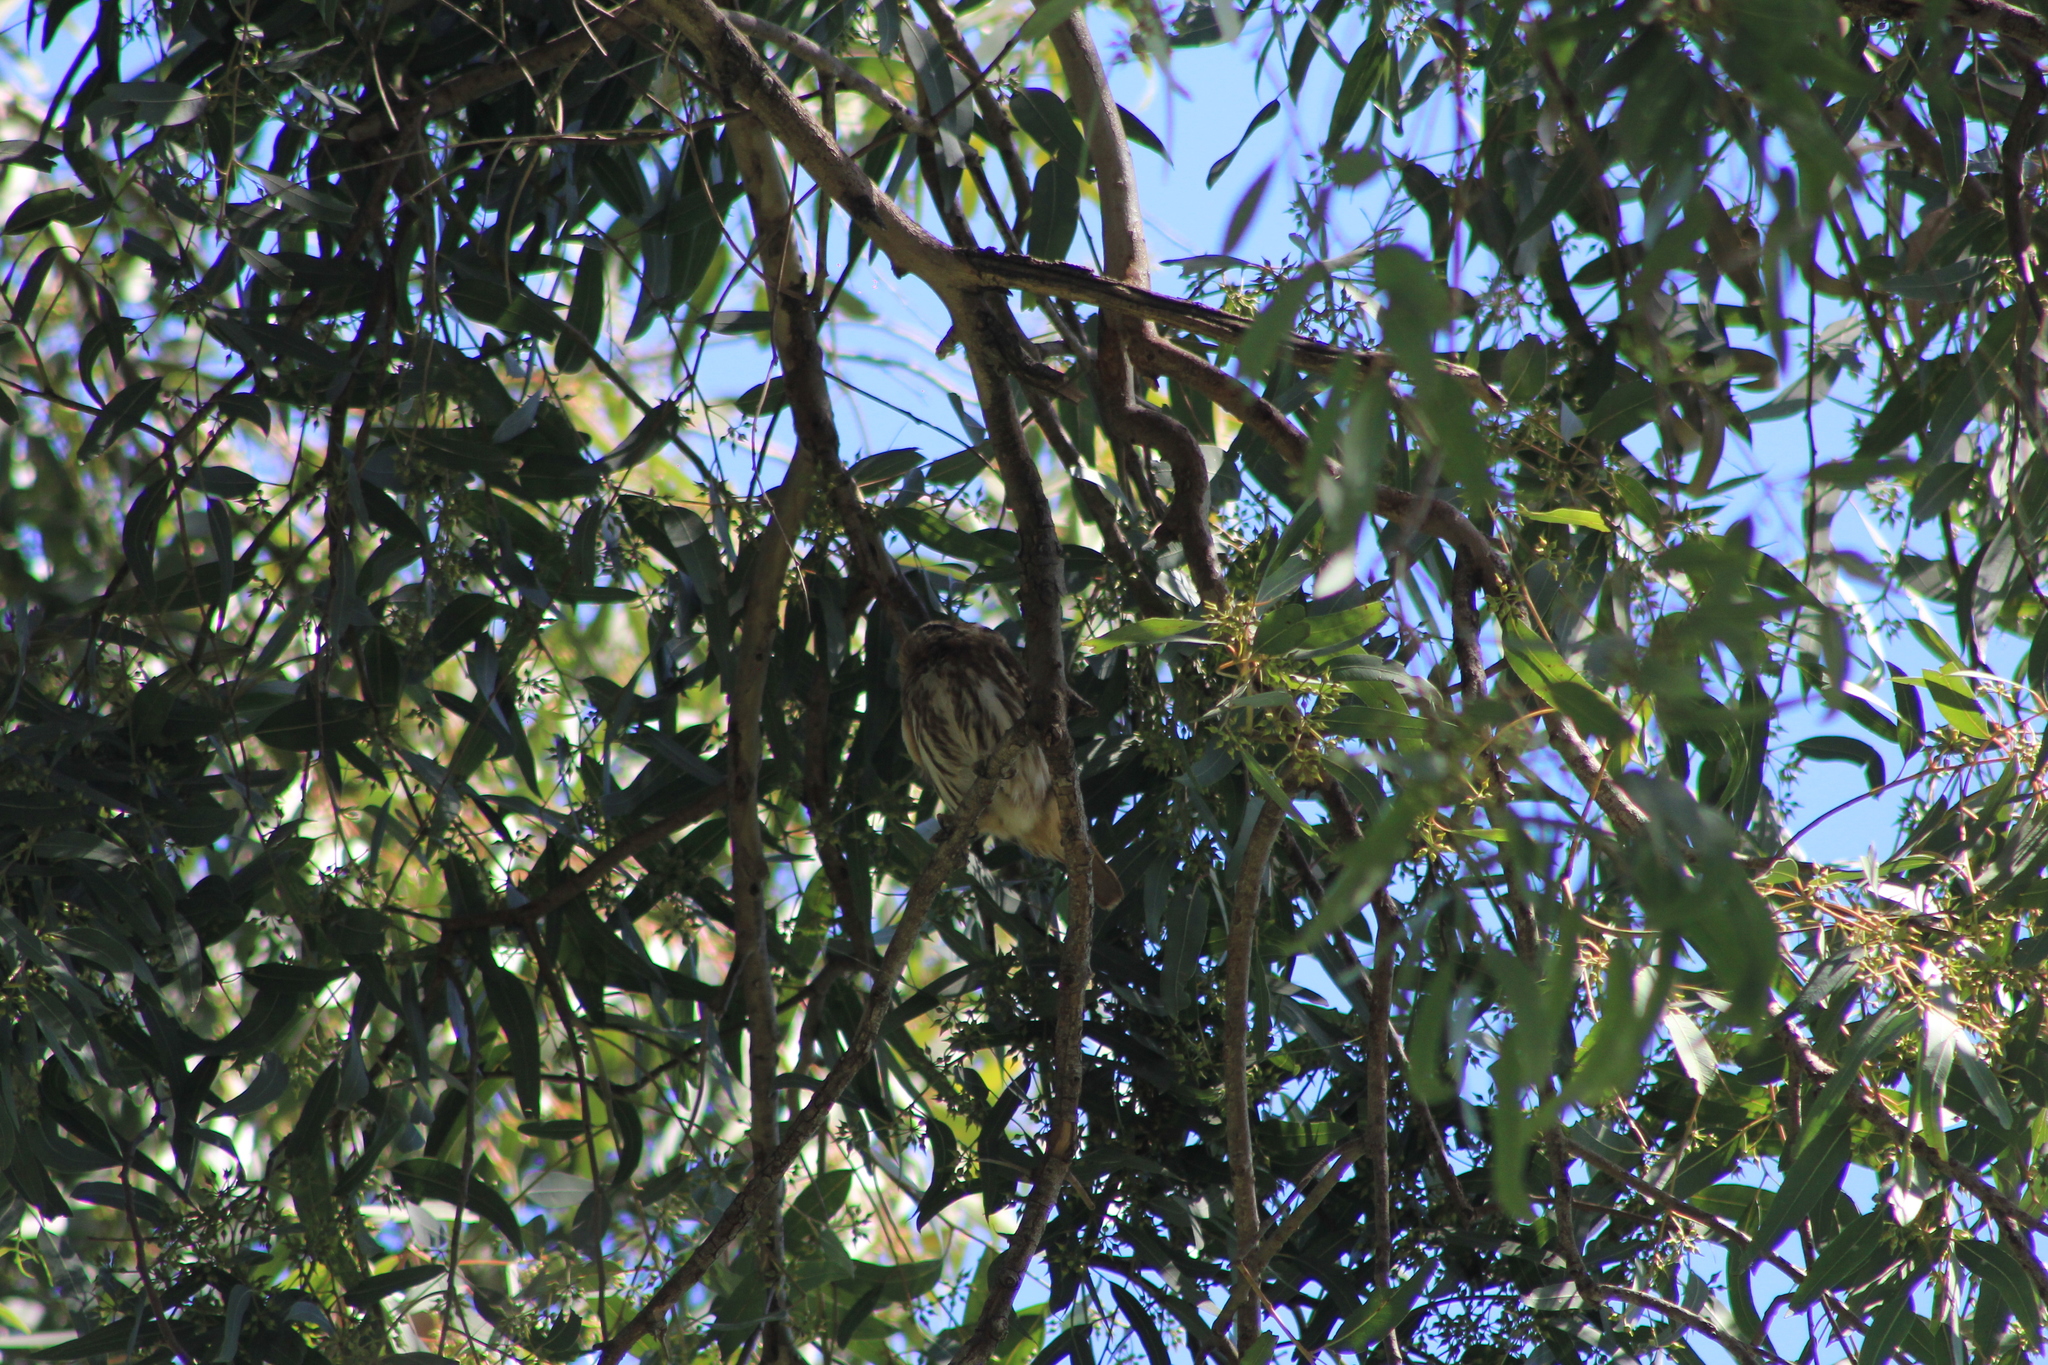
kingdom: Animalia
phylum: Chordata
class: Aves
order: Strigiformes
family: Strigidae
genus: Glaucidium
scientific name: Glaucidium brasilianum
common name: Ferruginous pygmy-owl
